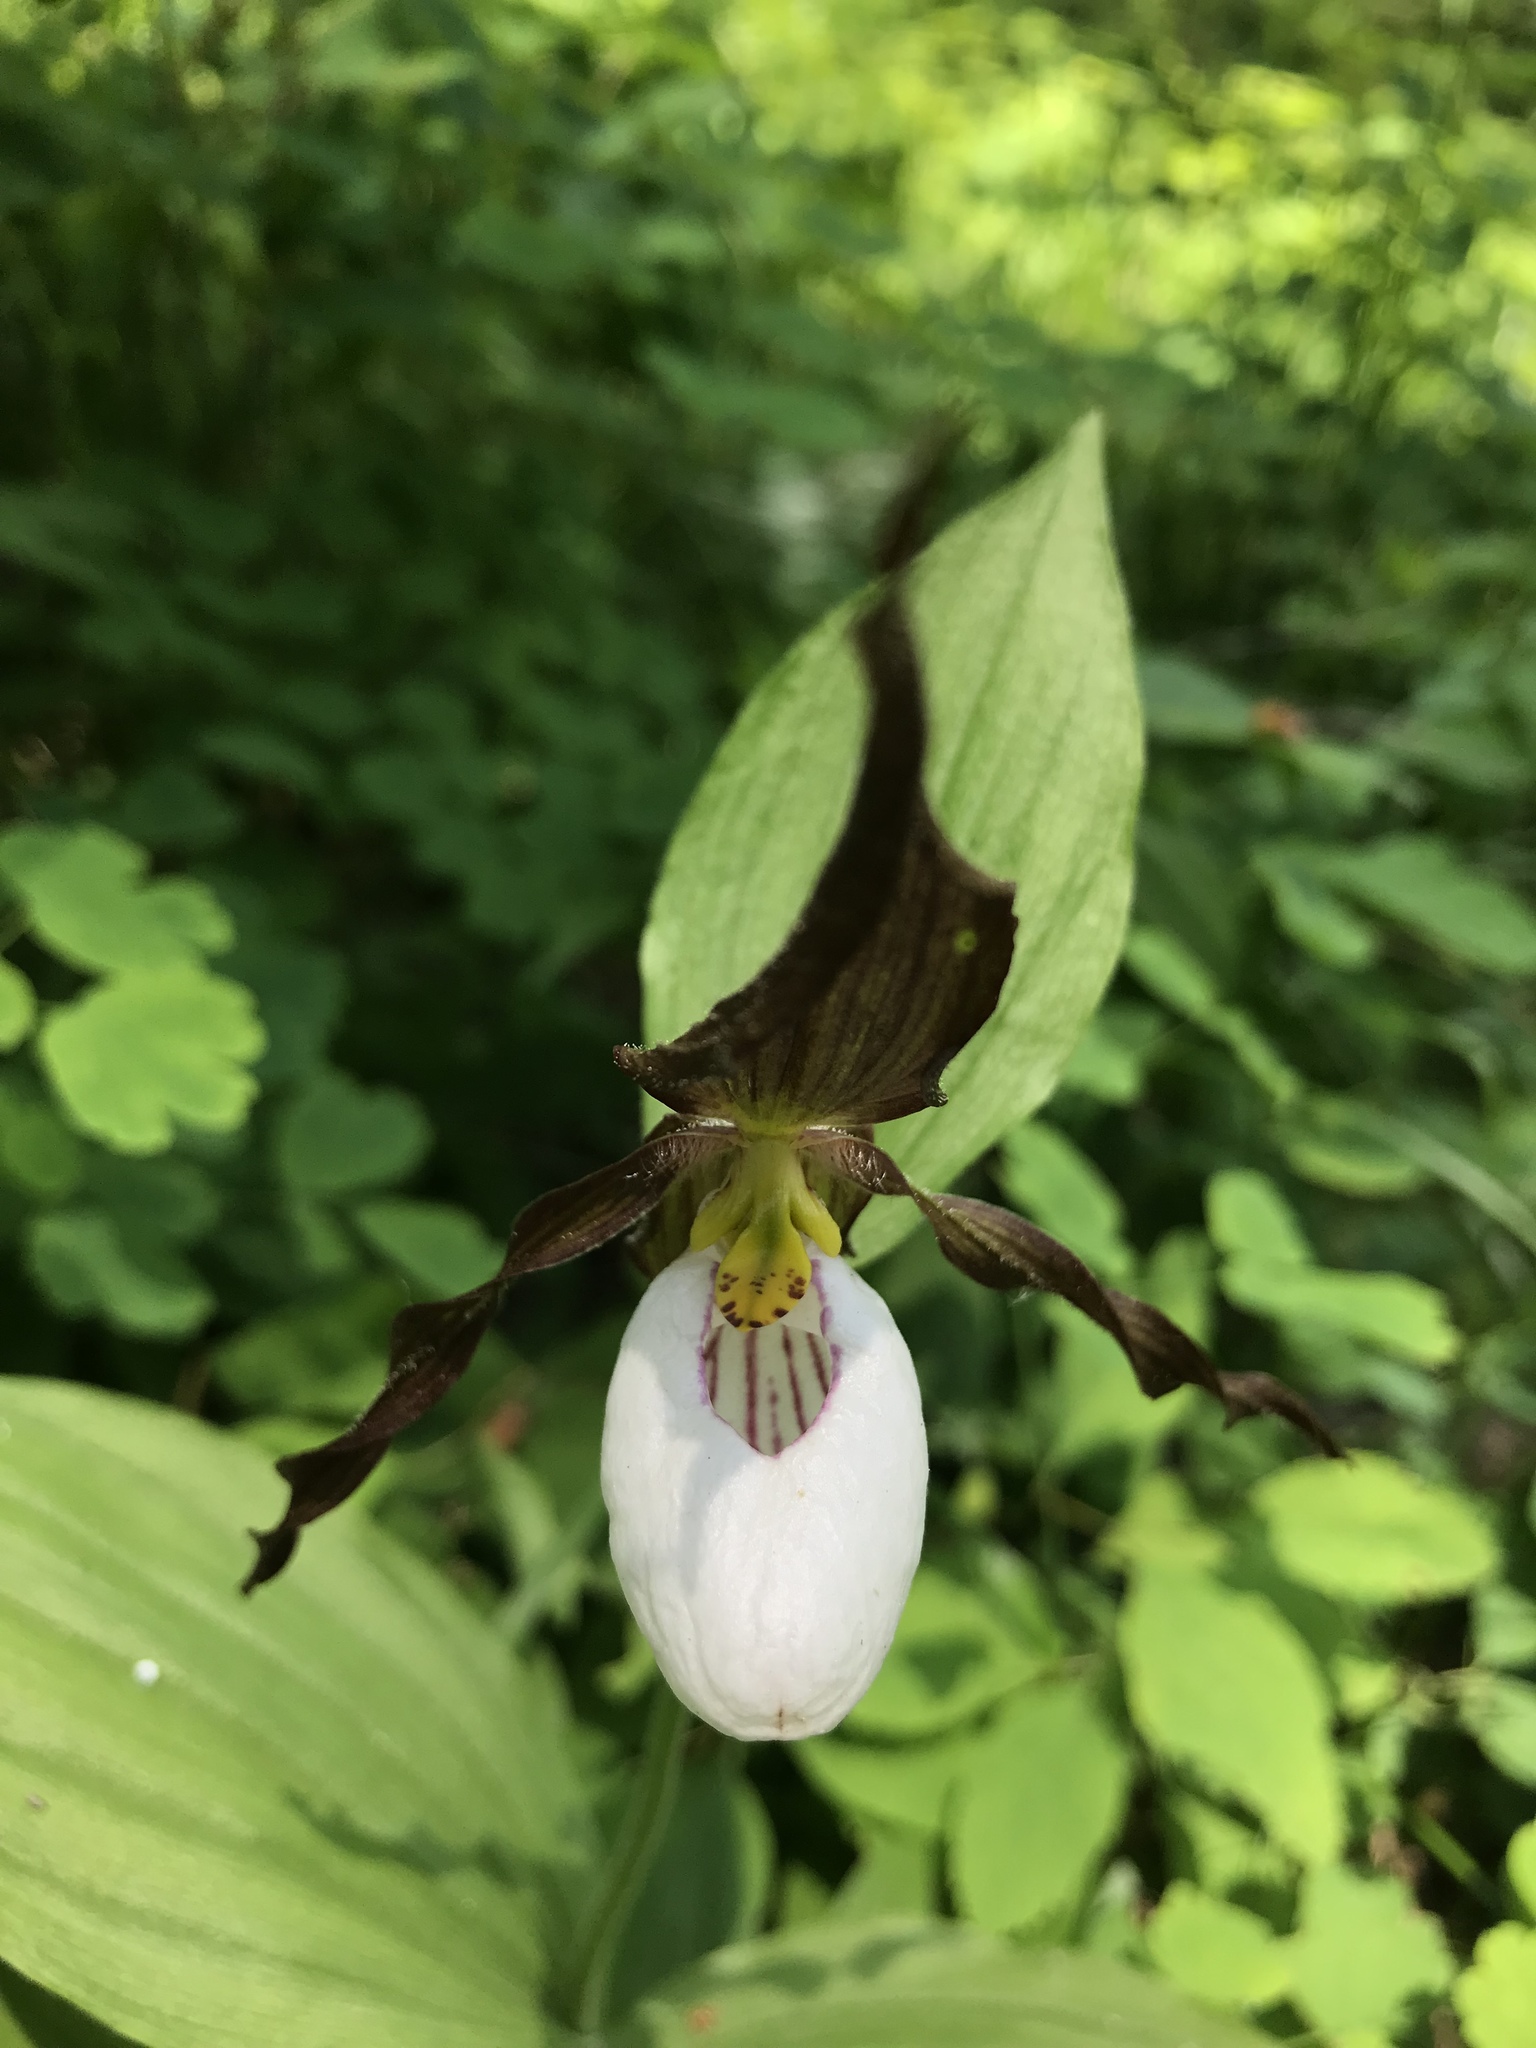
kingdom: Plantae
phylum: Tracheophyta
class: Liliopsida
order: Asparagales
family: Orchidaceae
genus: Cypripedium
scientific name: Cypripedium montanum
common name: Mountain lady's-slipper
